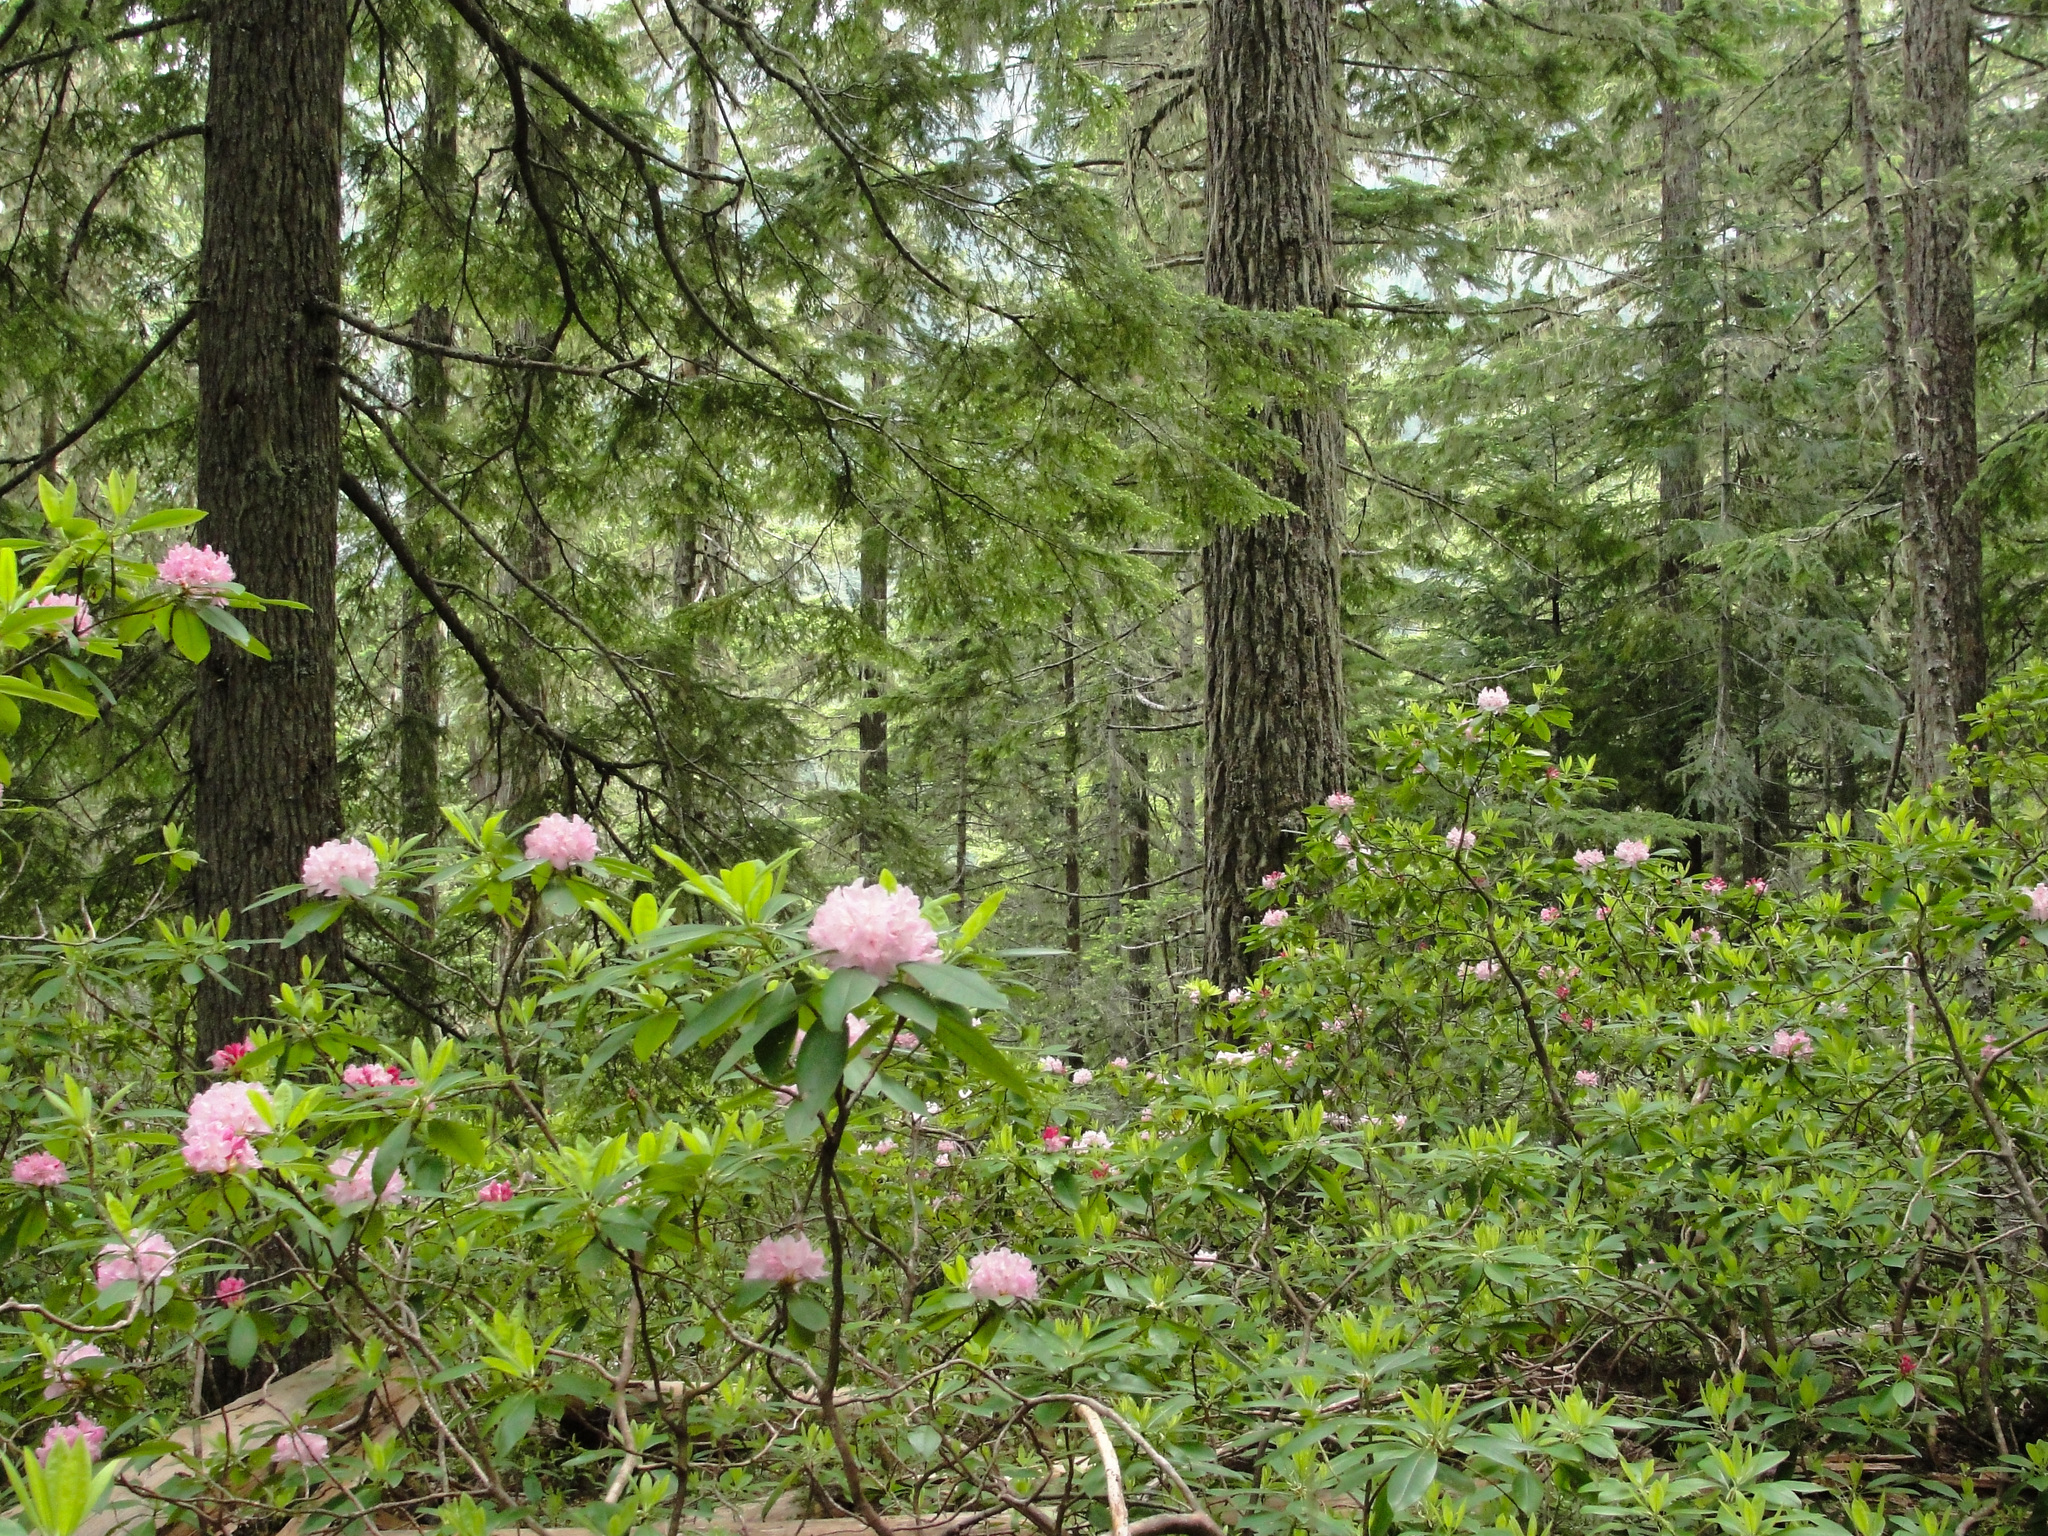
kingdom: Plantae
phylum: Tracheophyta
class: Magnoliopsida
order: Ericales
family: Ericaceae
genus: Rhododendron
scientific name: Rhododendron macrophyllum
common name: California rose bay
